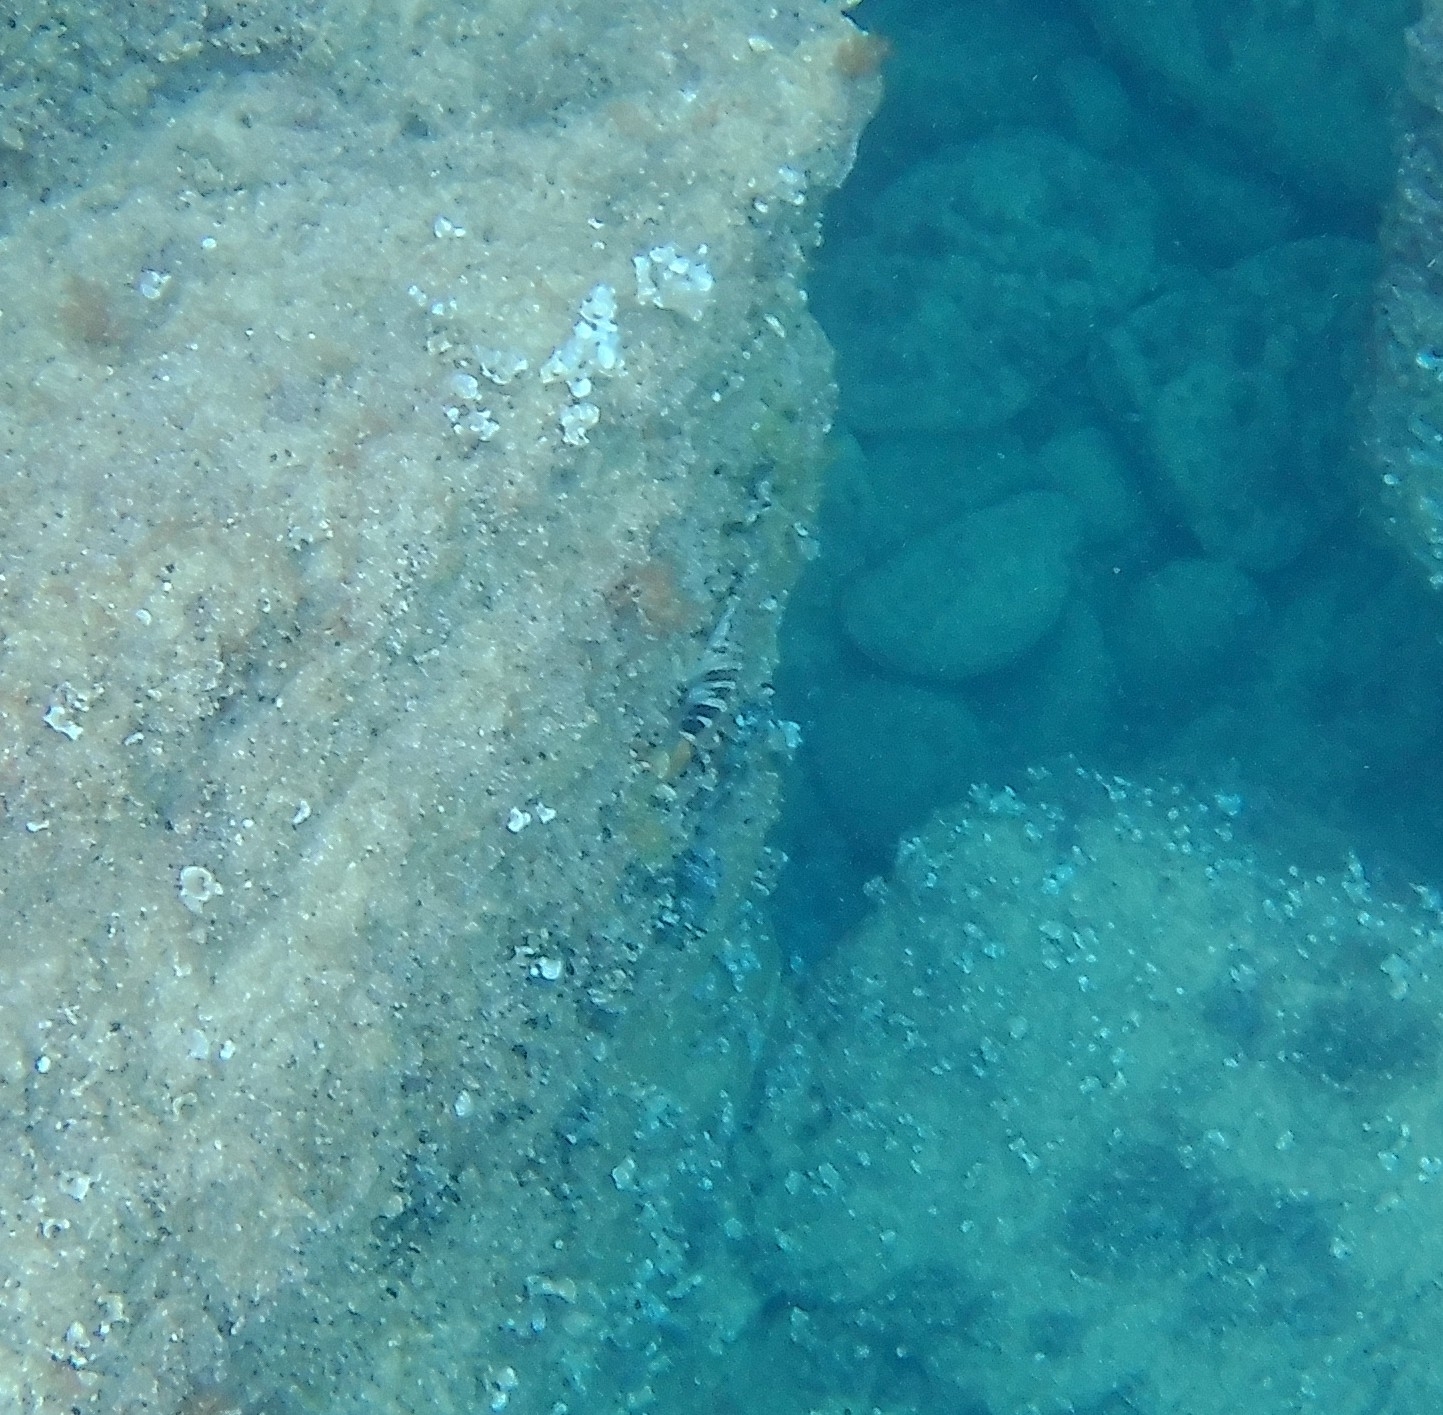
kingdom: Animalia
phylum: Chordata
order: Perciformes
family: Serranidae
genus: Serranus
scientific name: Serranus scriba
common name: Painted comber
